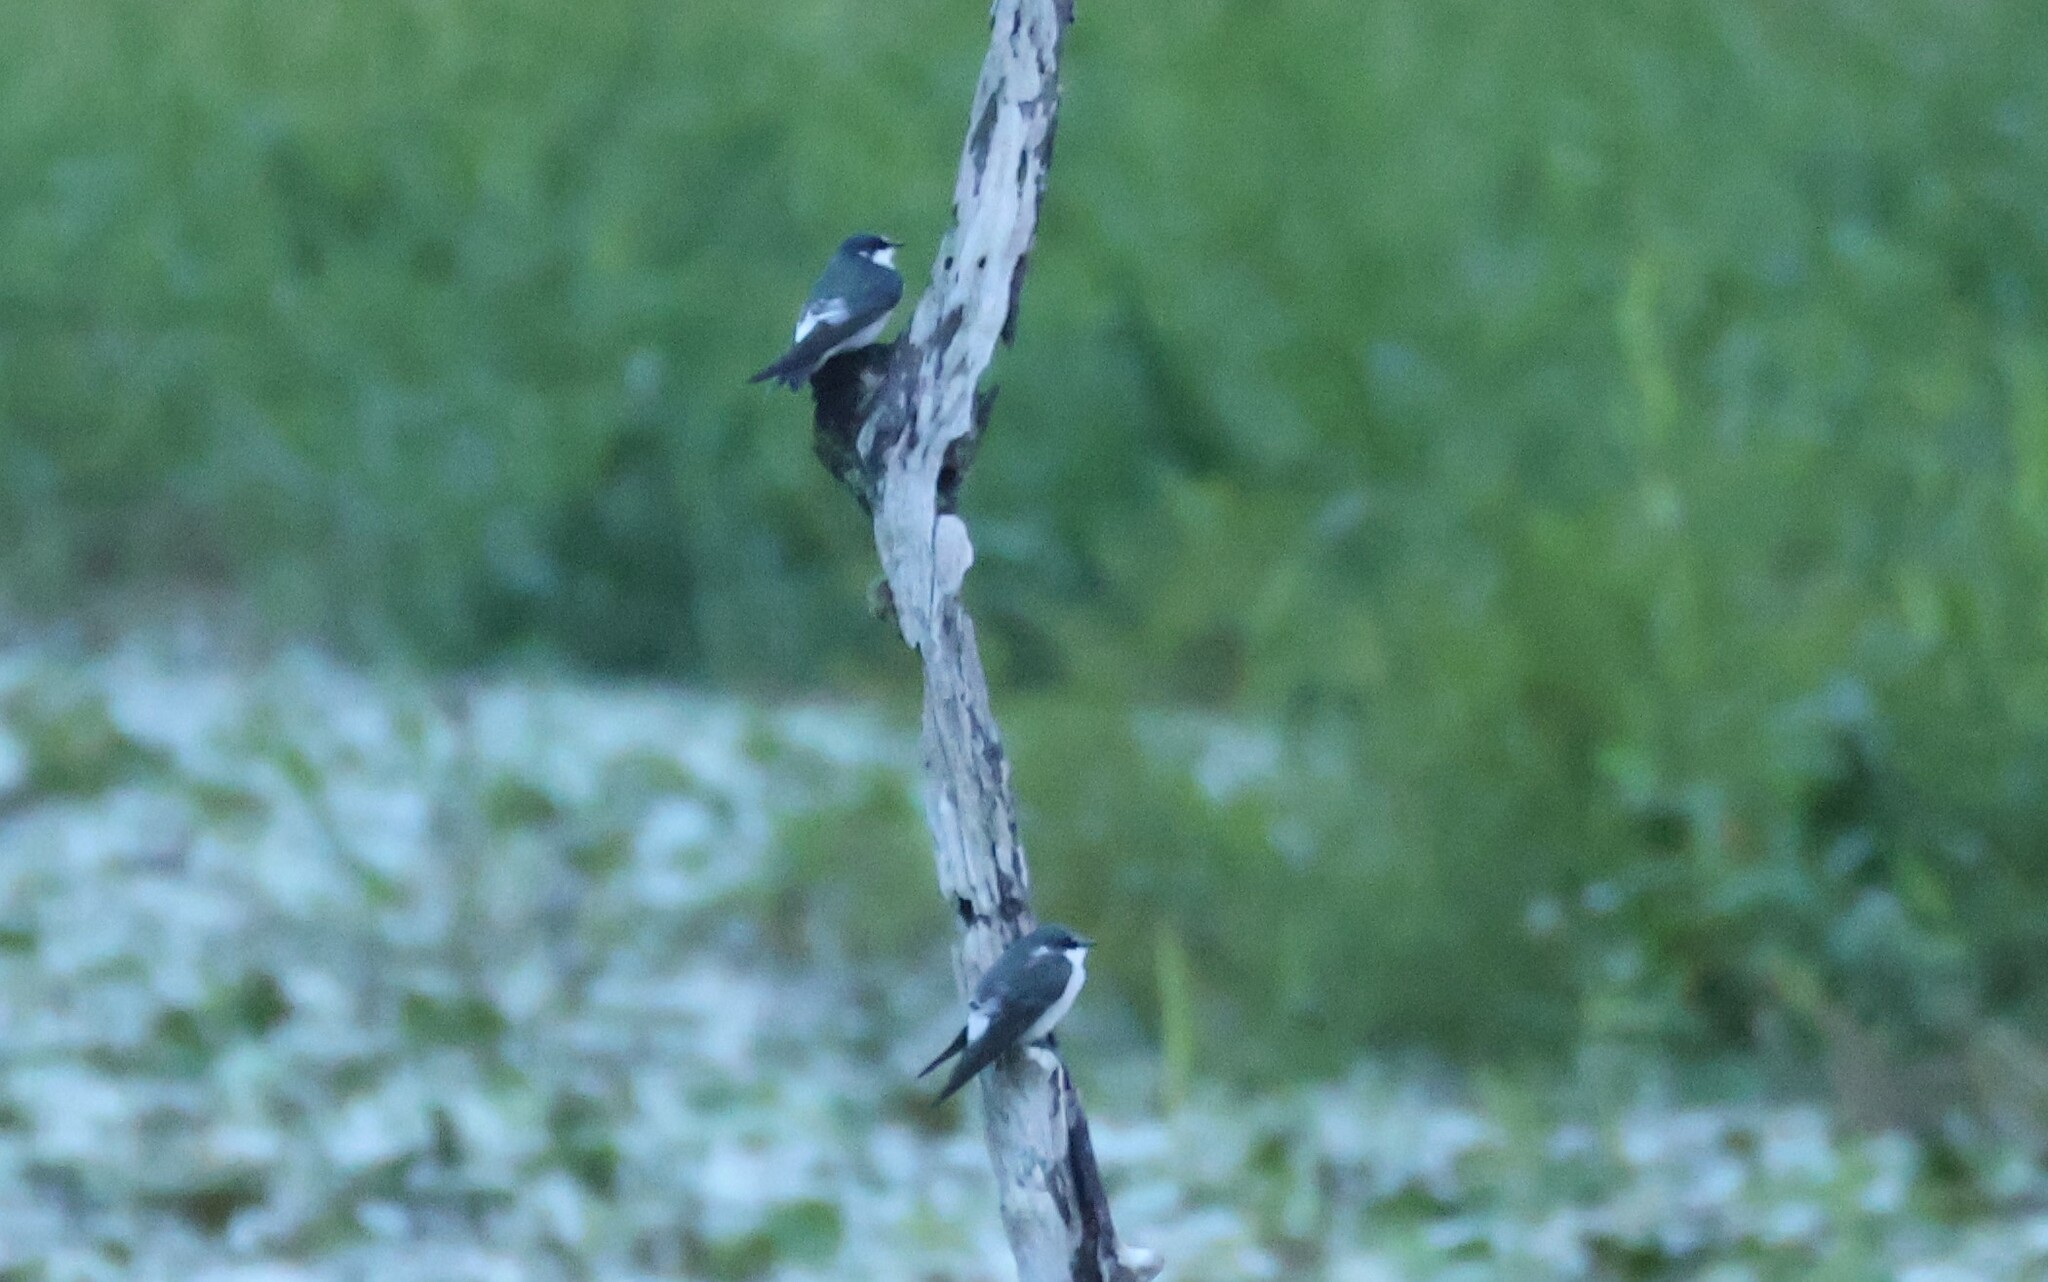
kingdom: Animalia
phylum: Chordata
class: Aves
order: Passeriformes
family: Hirundinidae
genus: Tachycineta
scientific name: Tachycineta albilinea
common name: Mangrove swallow
